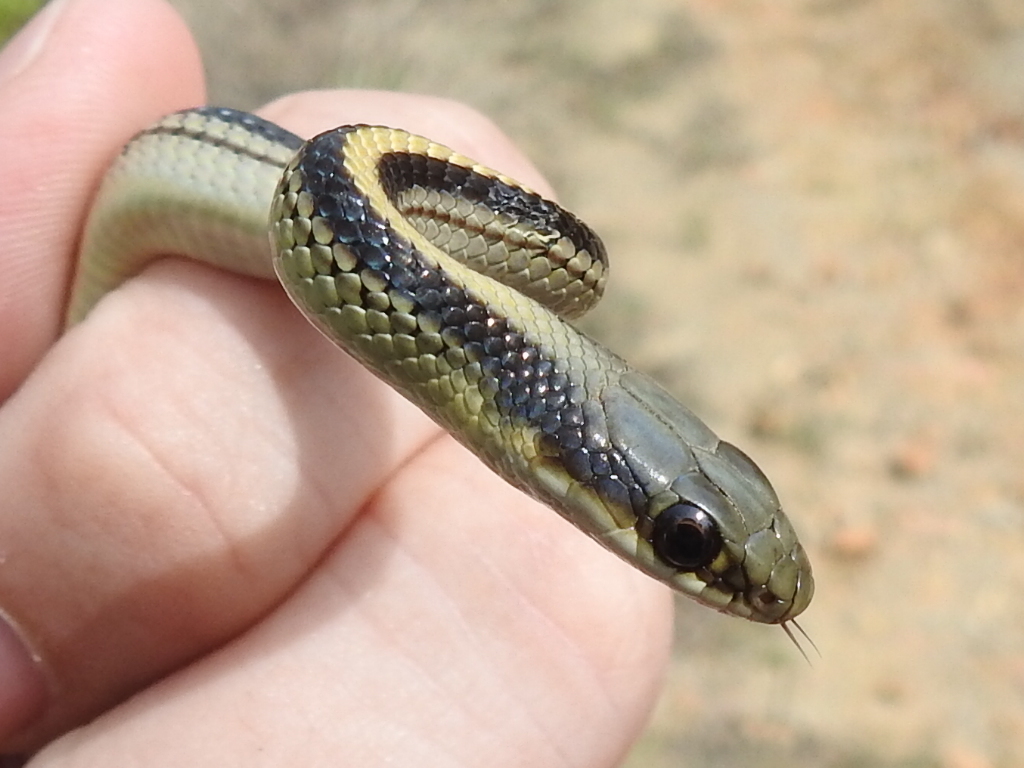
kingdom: Animalia
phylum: Chordata
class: Squamata
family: Colubridae
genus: Salvadora
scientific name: Salvadora lineata
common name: Texas patchnose snake
